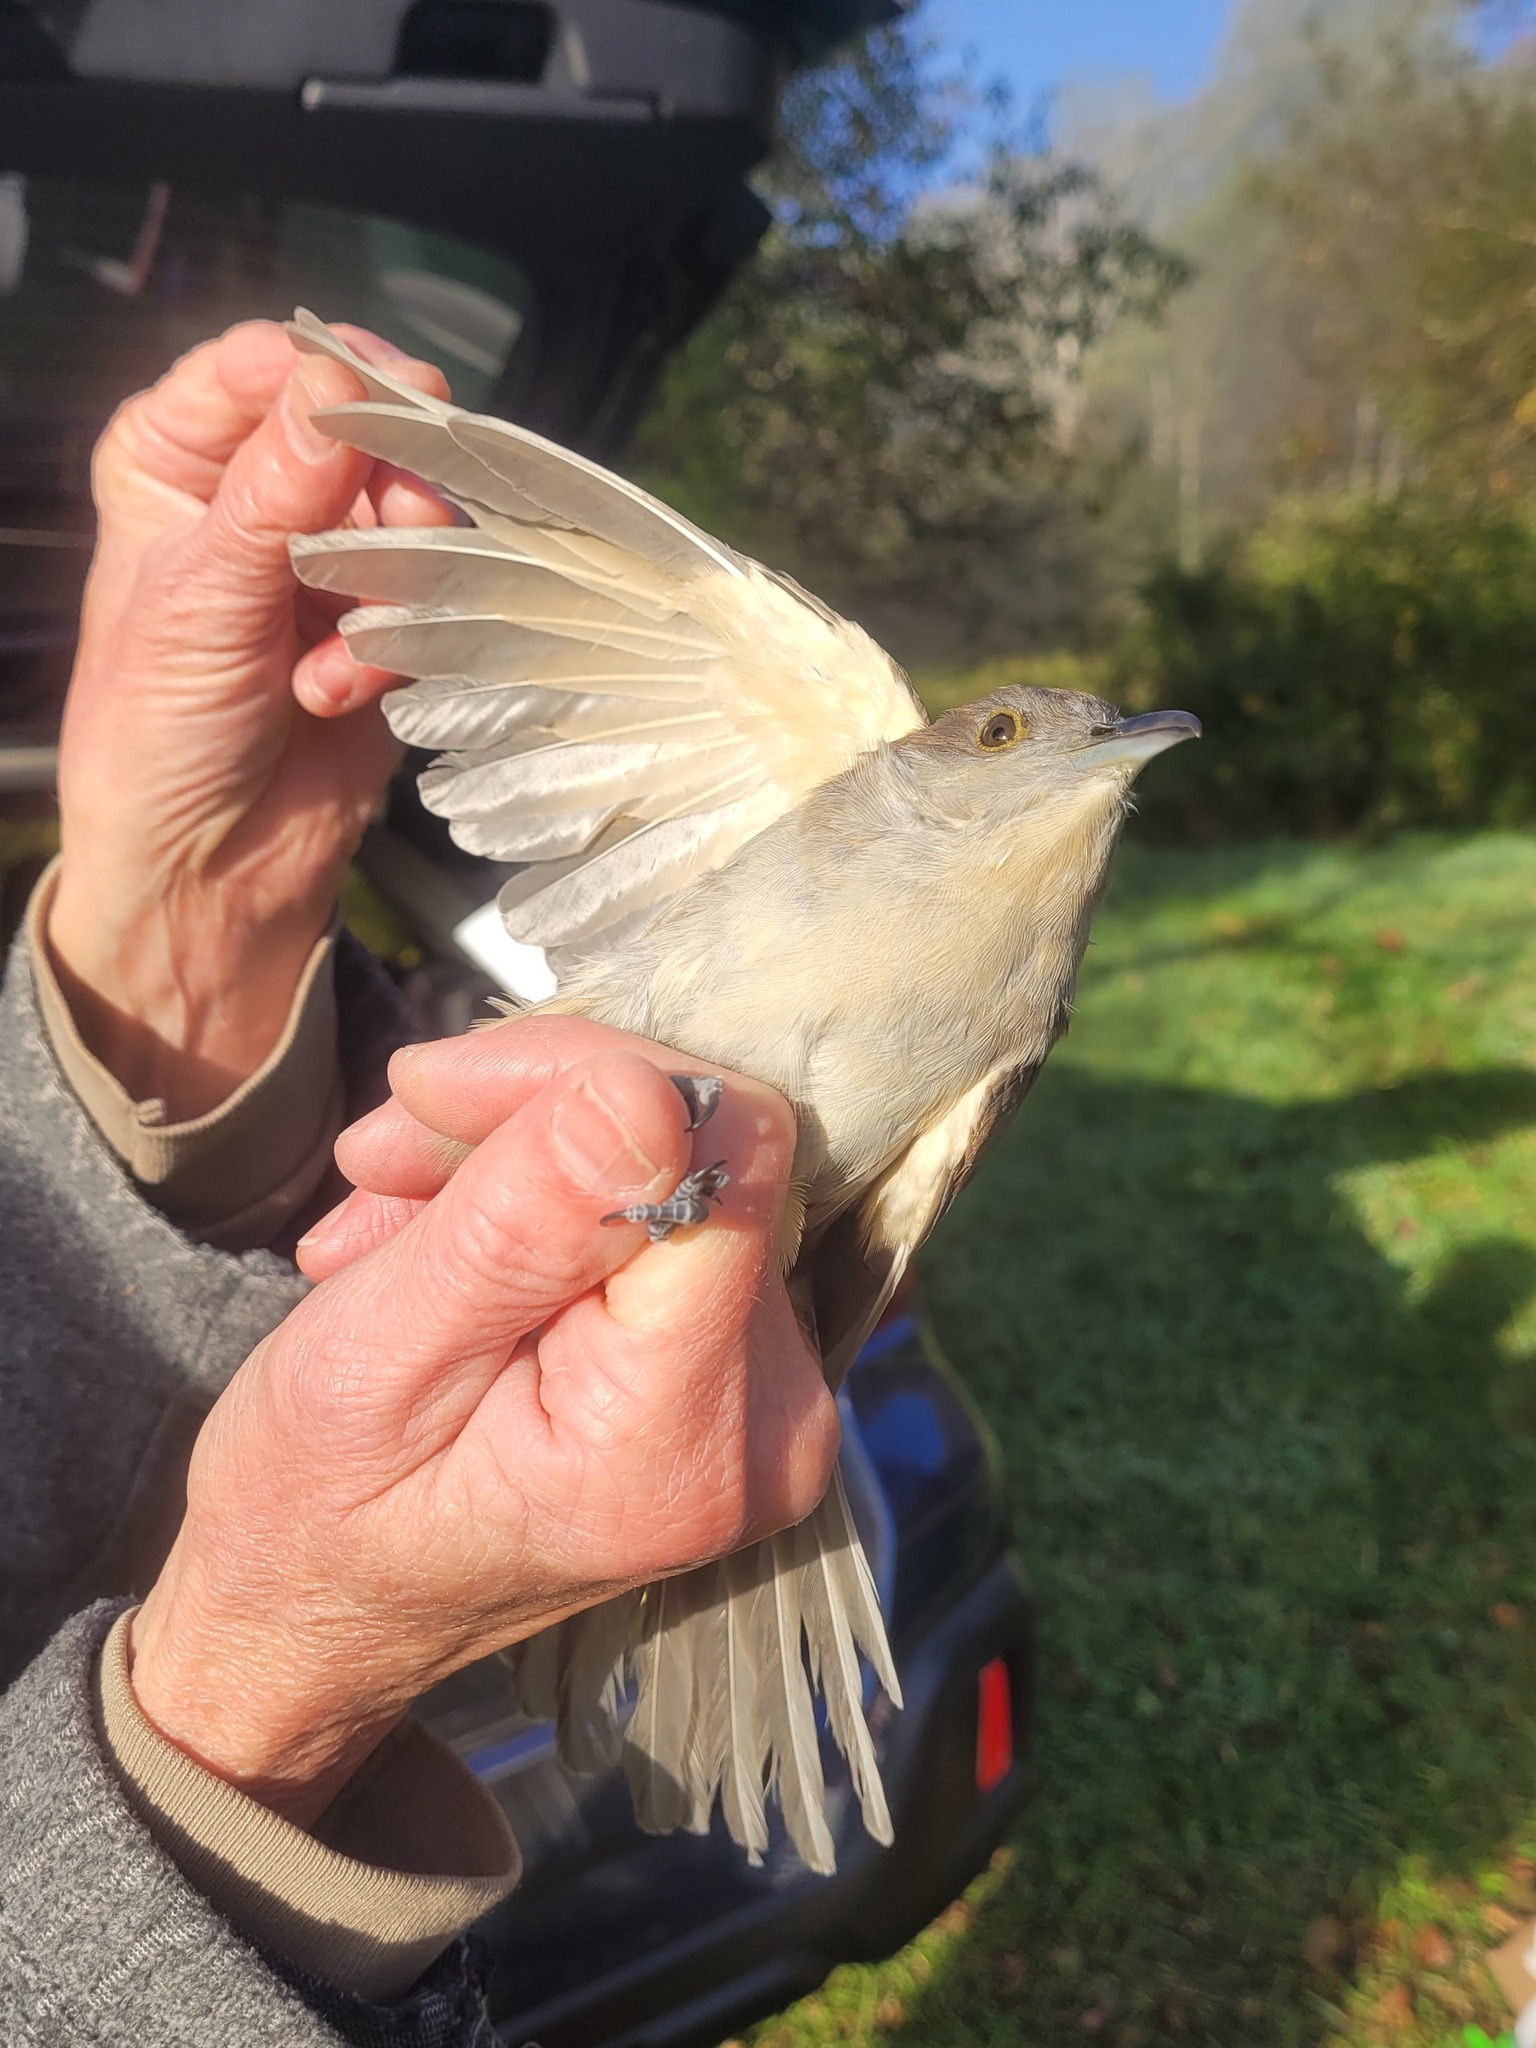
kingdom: Animalia
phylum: Chordata
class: Aves
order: Cuculiformes
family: Cuculidae
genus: Coccyzus
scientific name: Coccyzus erythropthalmus
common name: Black-billed cuckoo
